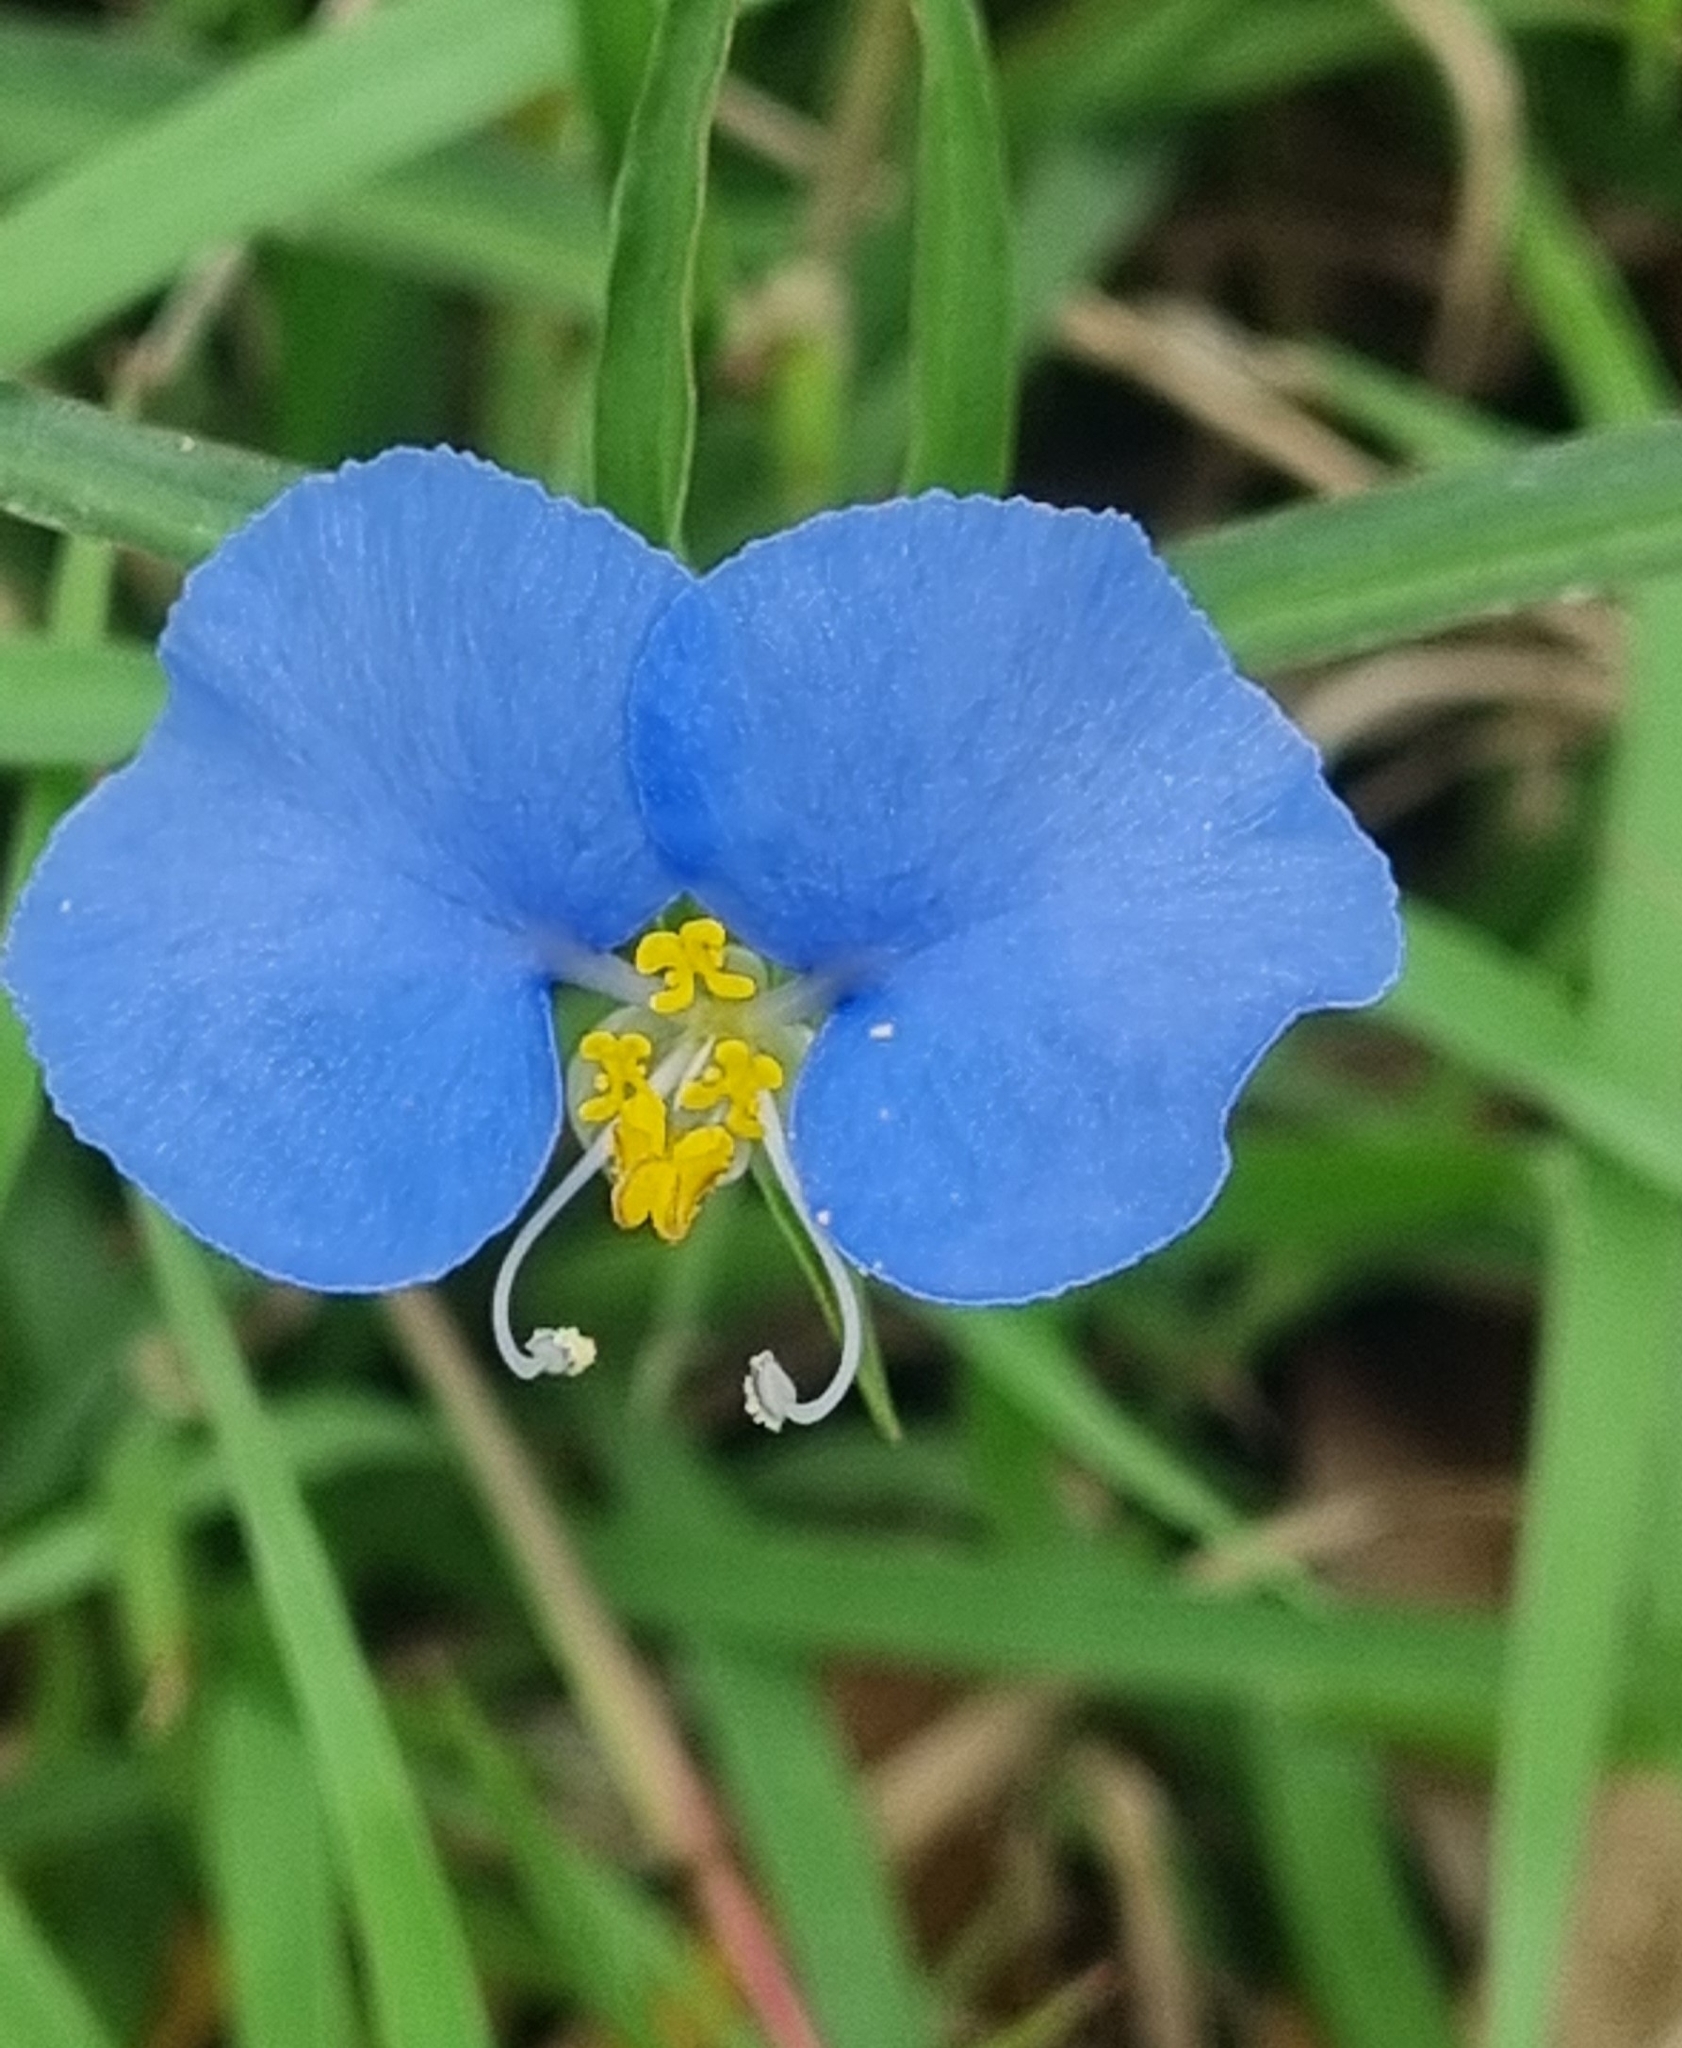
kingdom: Plantae
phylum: Tracheophyta
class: Liliopsida
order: Commelinales
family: Commelinaceae
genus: Commelina
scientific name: Commelina erecta
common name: Blousel blommetjie
